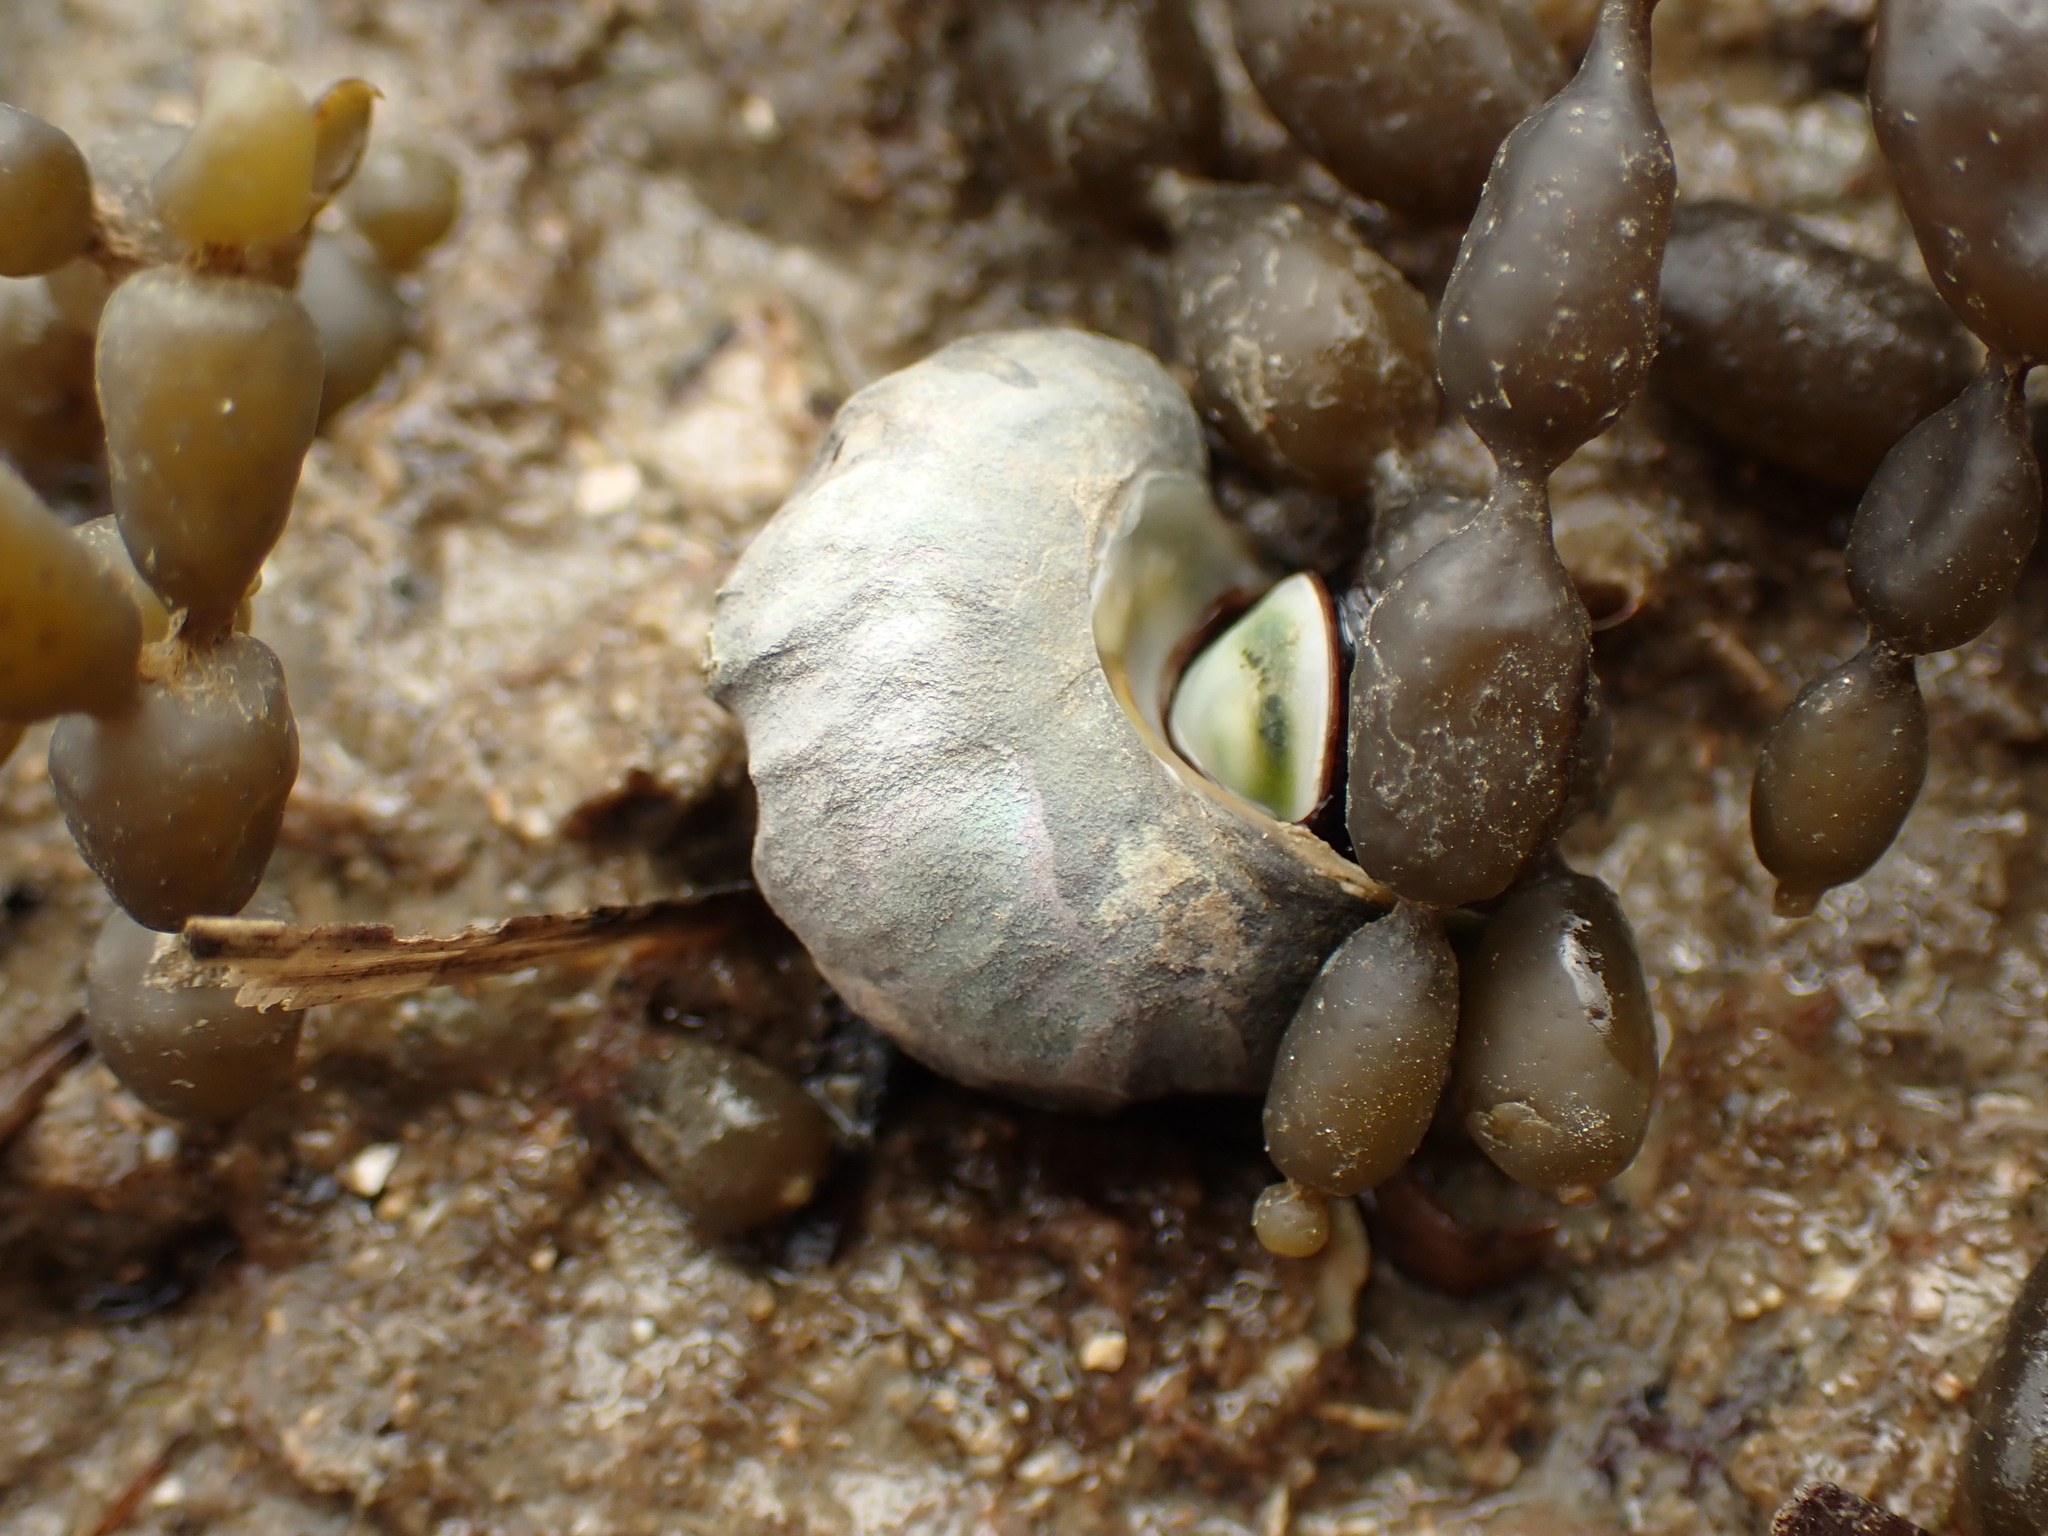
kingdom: Animalia
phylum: Mollusca
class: Gastropoda
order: Trochida
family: Turbinidae
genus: Lunella
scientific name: Lunella smaragda
